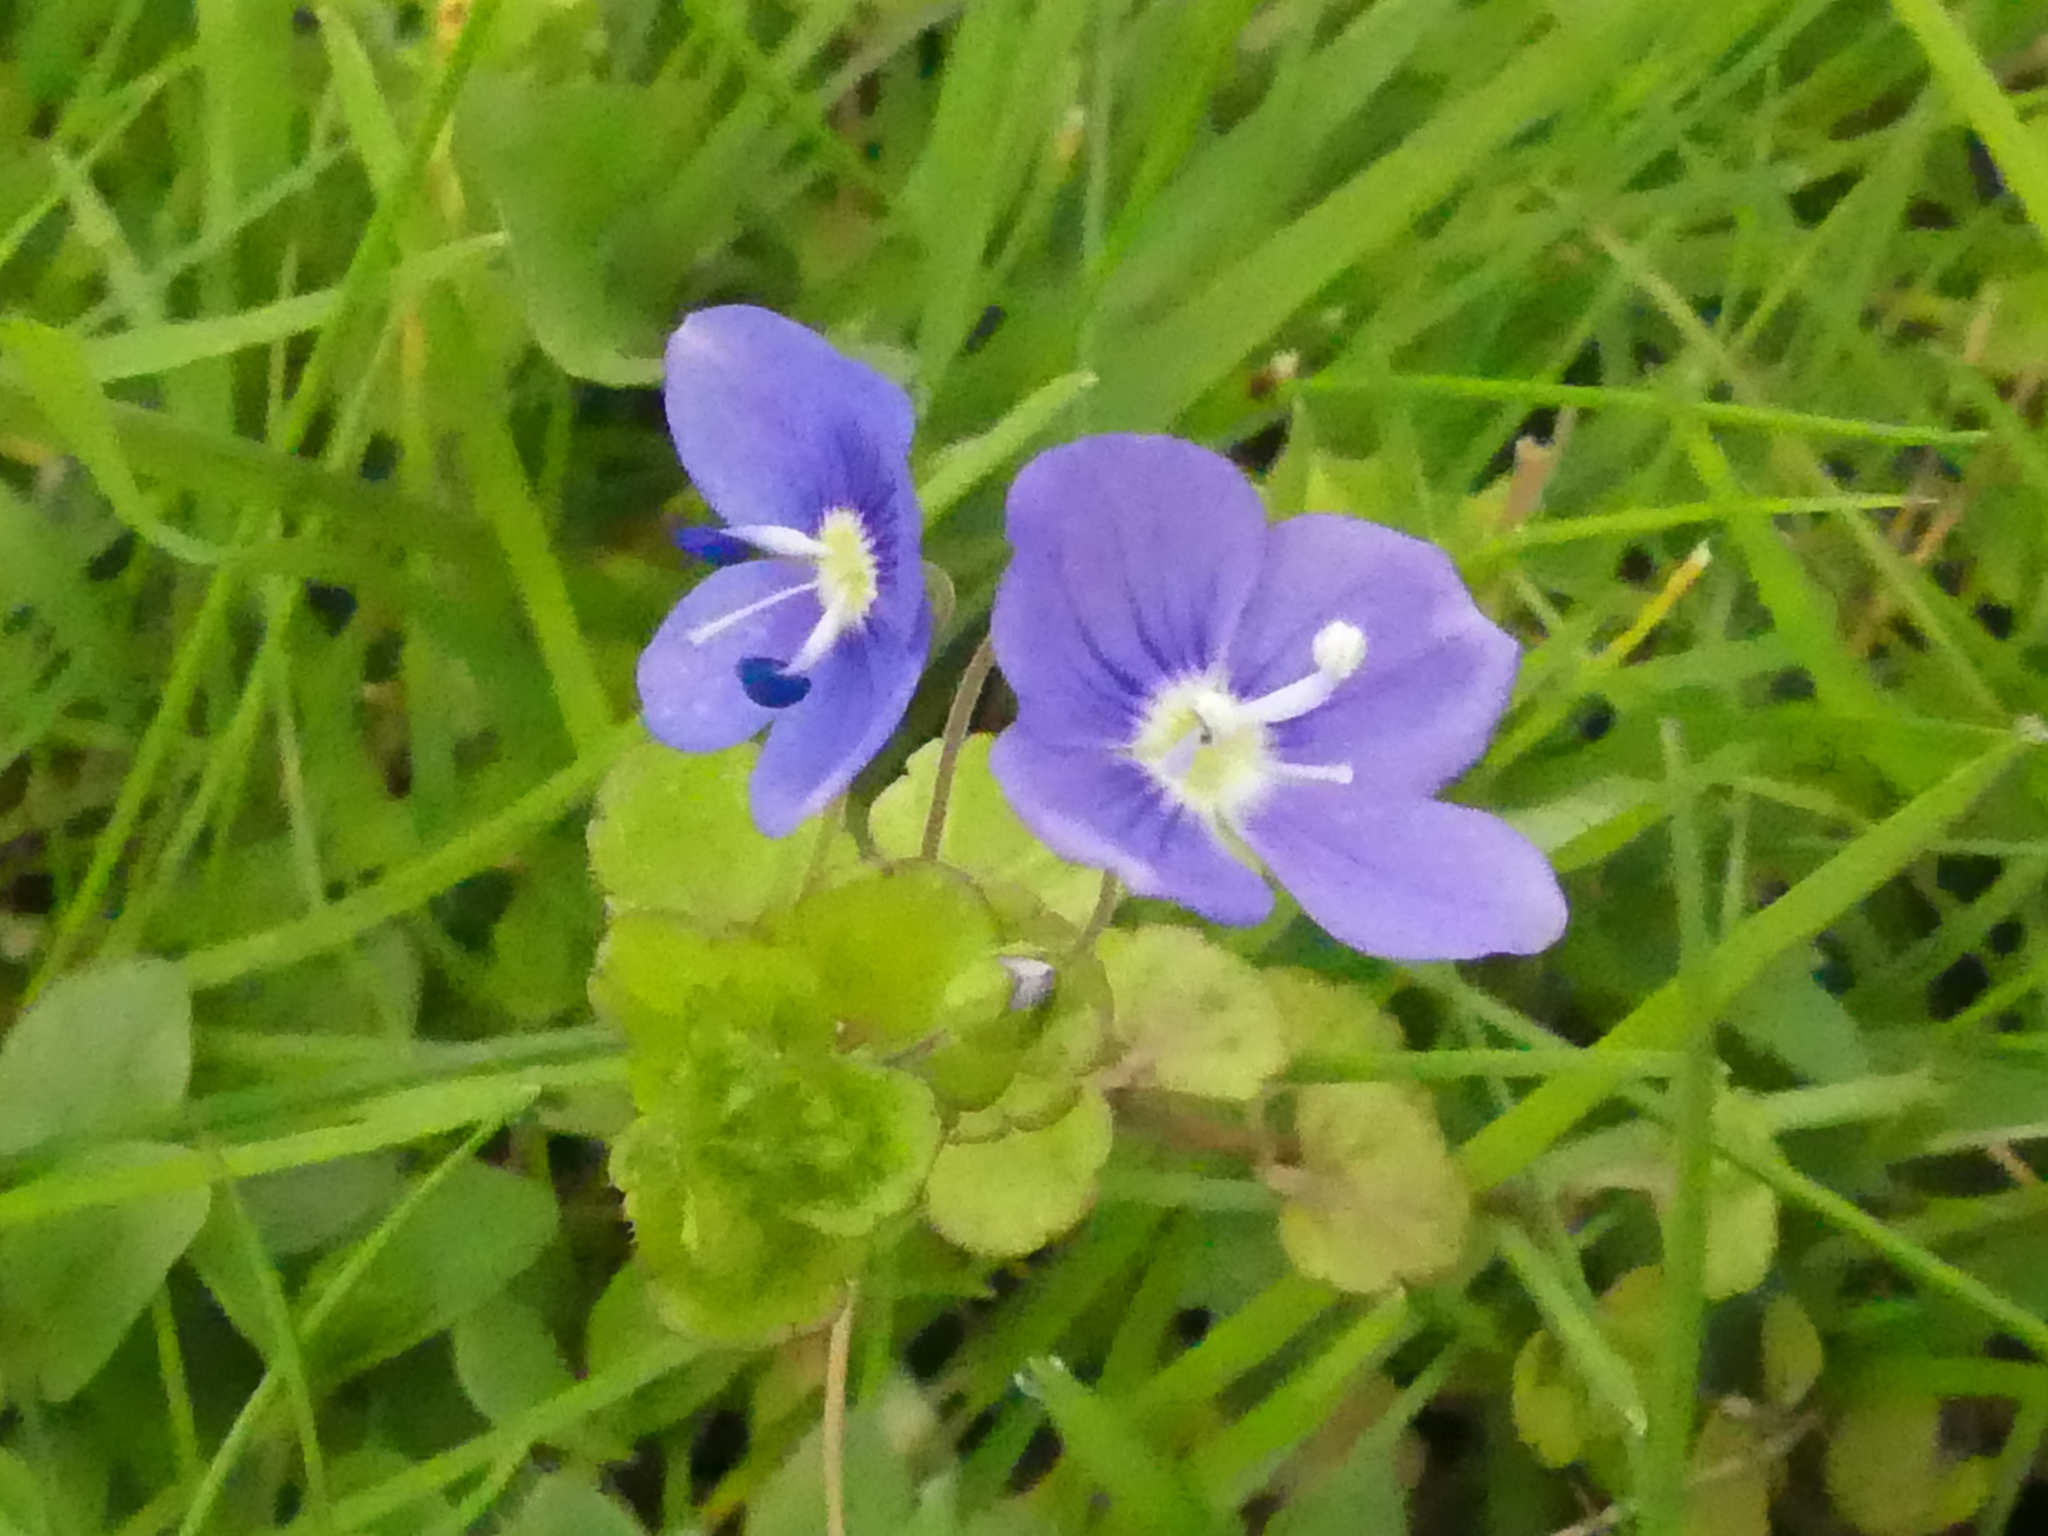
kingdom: Plantae
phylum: Tracheophyta
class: Magnoliopsida
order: Lamiales
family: Plantaginaceae
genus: Veronica
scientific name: Veronica filiformis
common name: Slender speedwell
